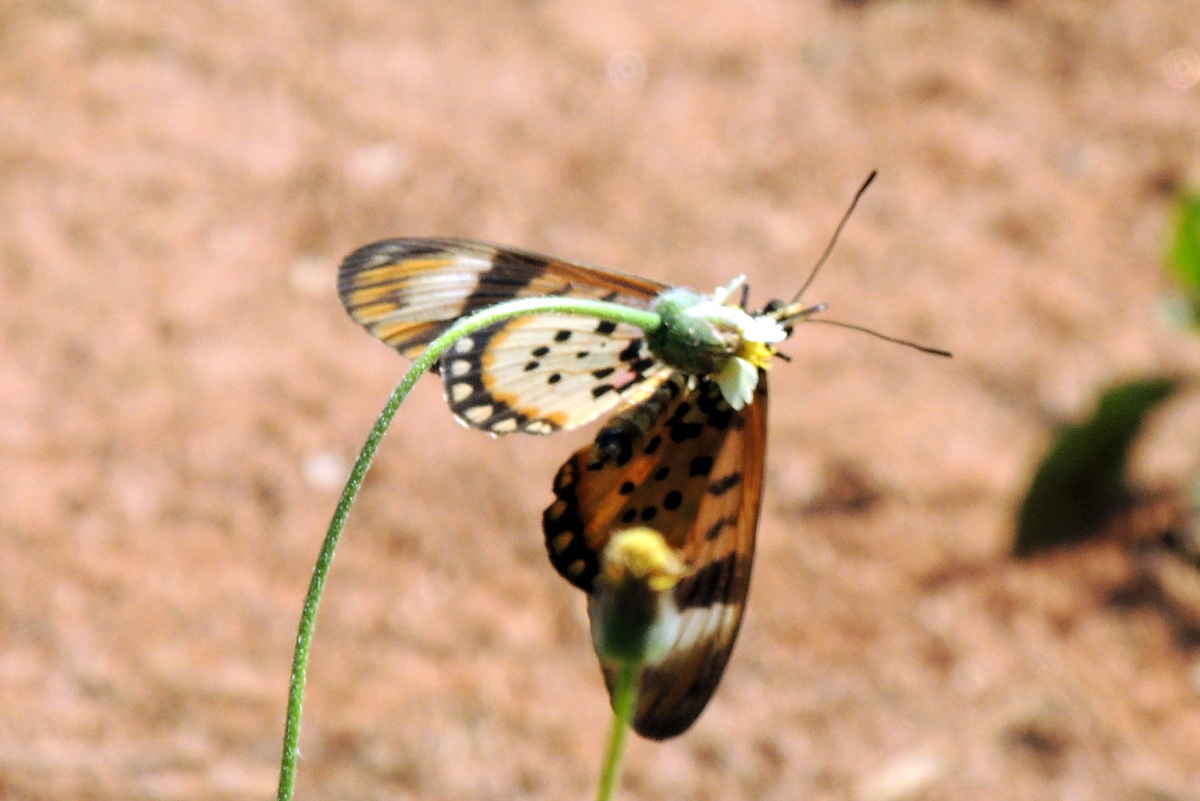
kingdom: Animalia
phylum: Arthropoda
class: Insecta
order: Lepidoptera
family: Nymphalidae
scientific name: Nymphalidae
